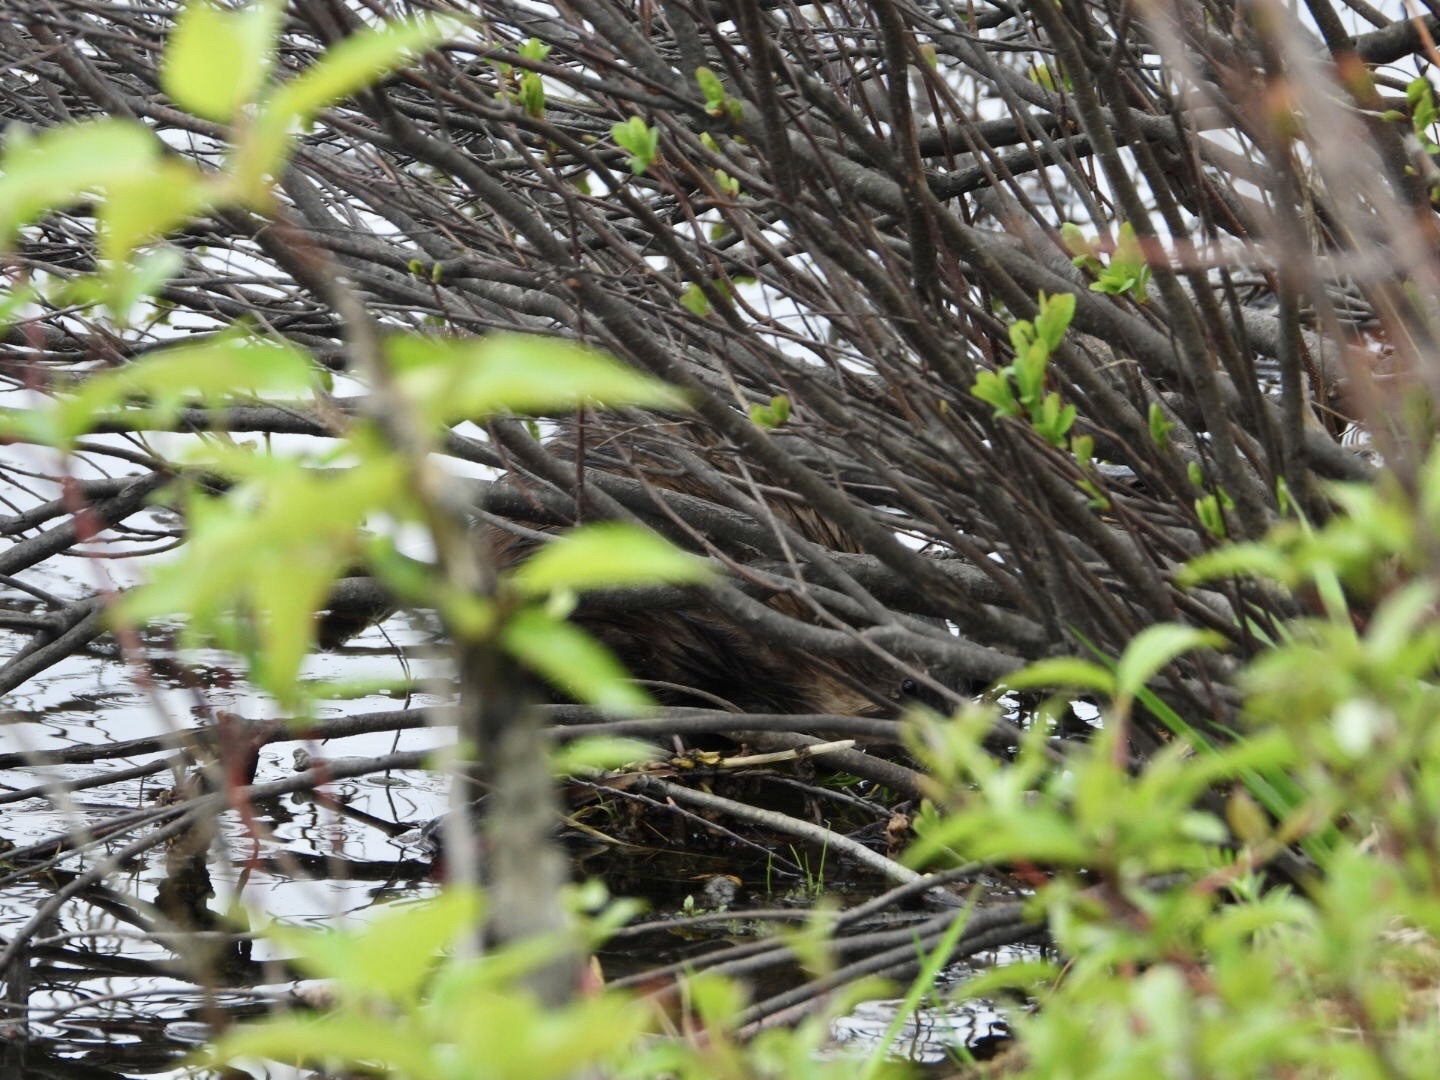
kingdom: Animalia
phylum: Chordata
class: Mammalia
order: Rodentia
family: Cricetidae
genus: Ondatra
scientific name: Ondatra zibethicus
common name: Muskrat
